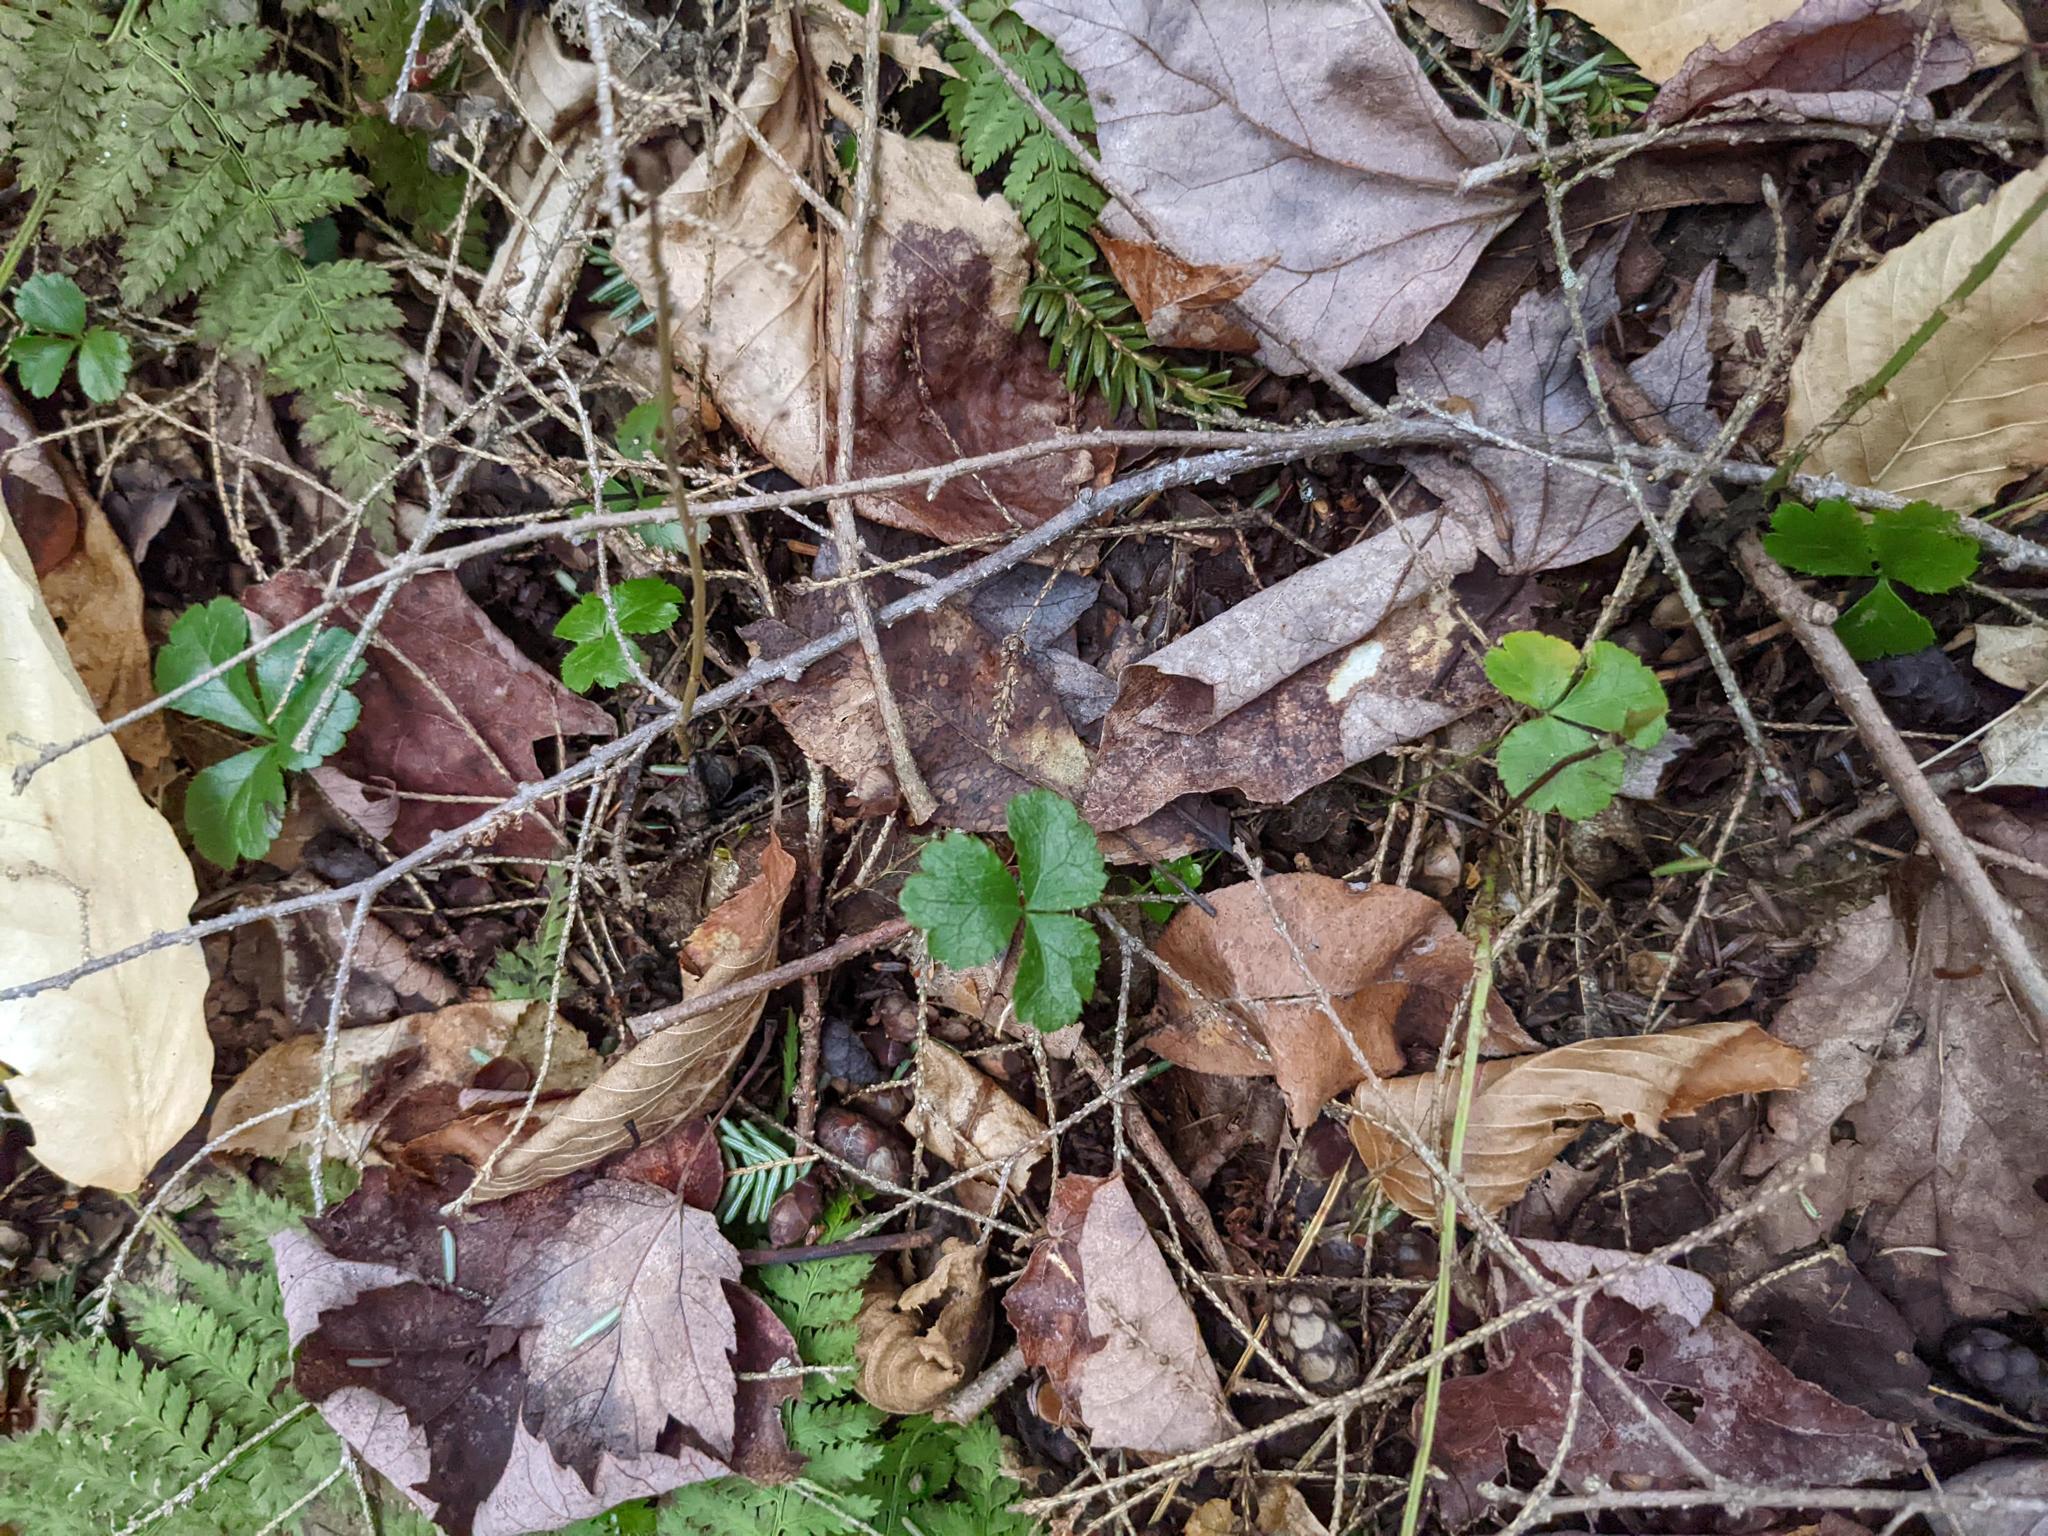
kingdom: Plantae
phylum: Tracheophyta
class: Magnoliopsida
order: Ranunculales
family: Ranunculaceae
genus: Coptis
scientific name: Coptis trifolia
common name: Canker-root
